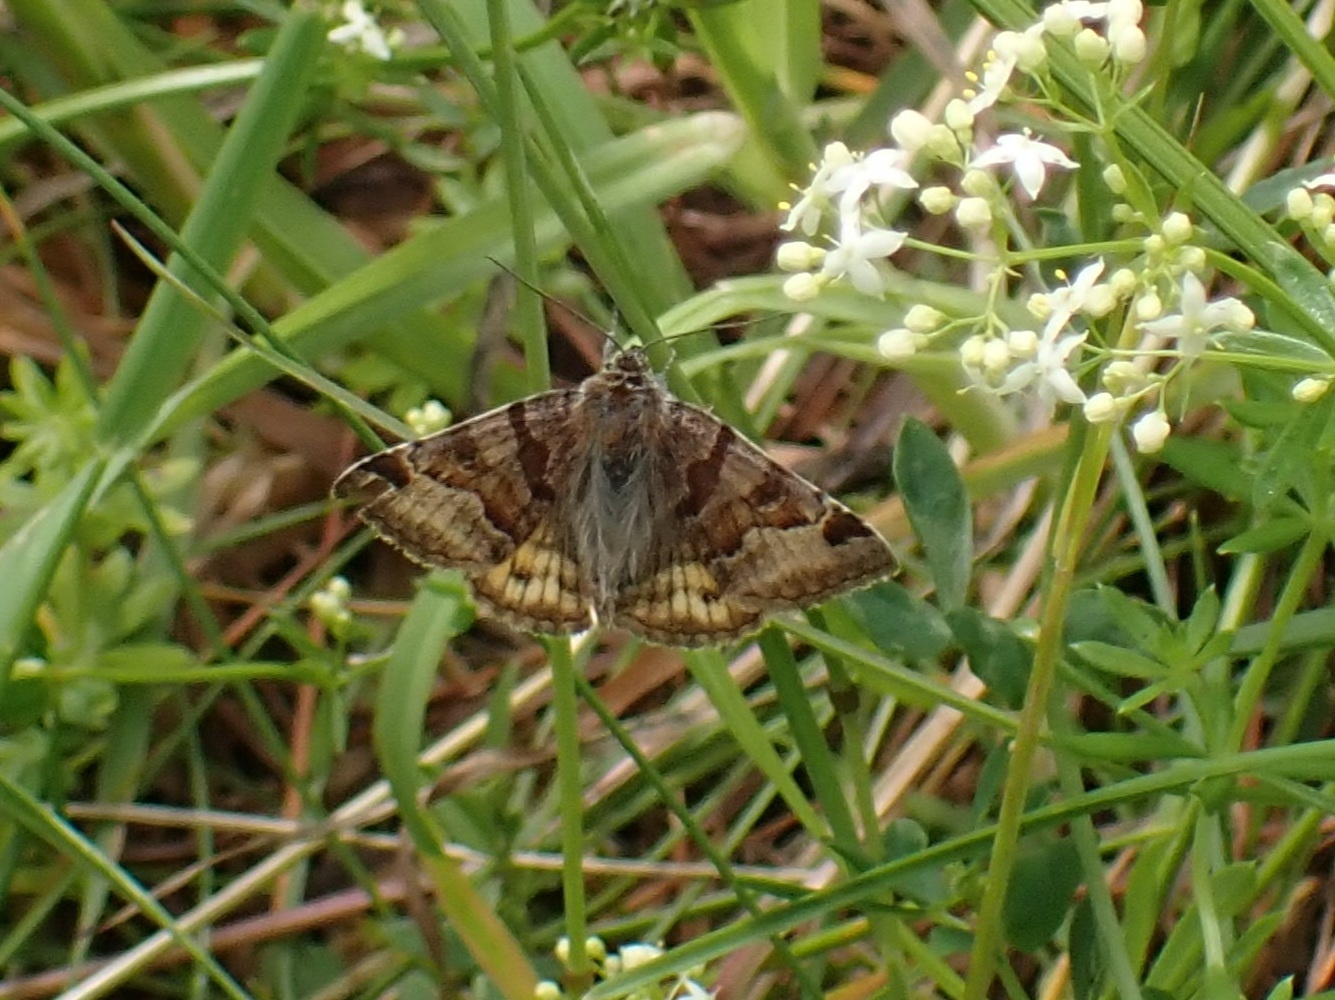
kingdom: Animalia
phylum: Arthropoda
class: Insecta
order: Lepidoptera
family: Erebidae
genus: Euclidia
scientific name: Euclidia glyphica
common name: Burnet companion
